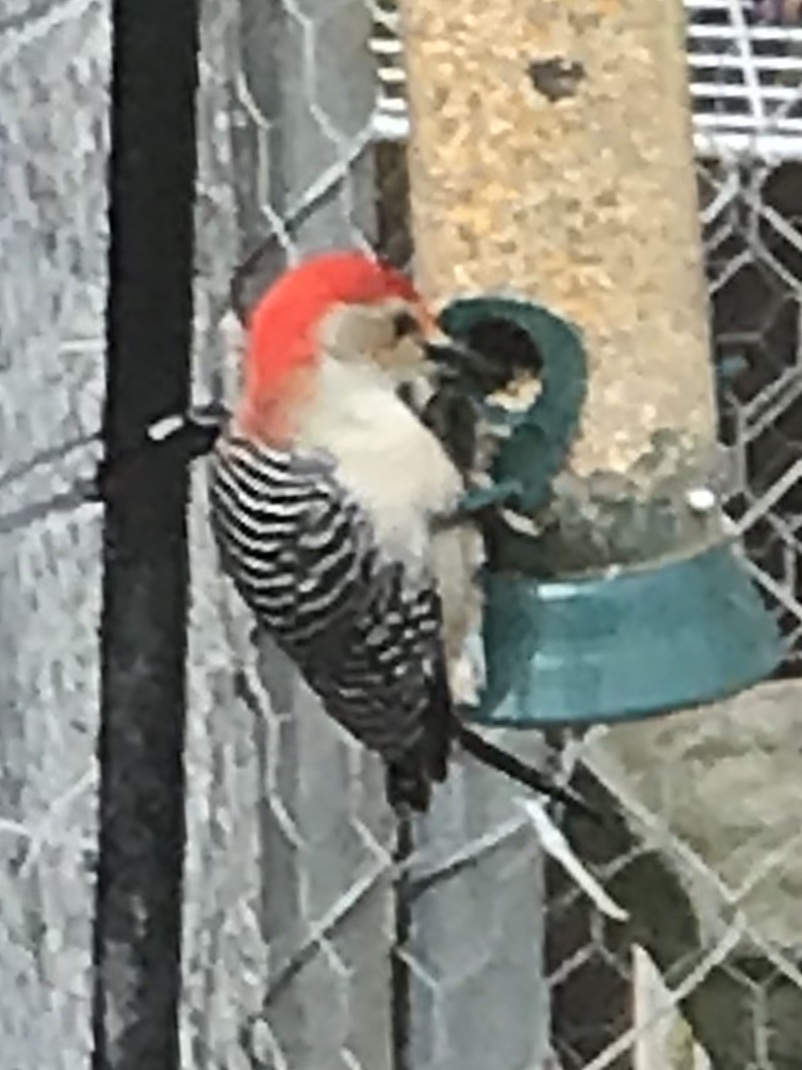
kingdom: Animalia
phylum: Chordata
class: Aves
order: Piciformes
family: Picidae
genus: Melanerpes
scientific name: Melanerpes carolinus
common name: Red-bellied woodpecker
